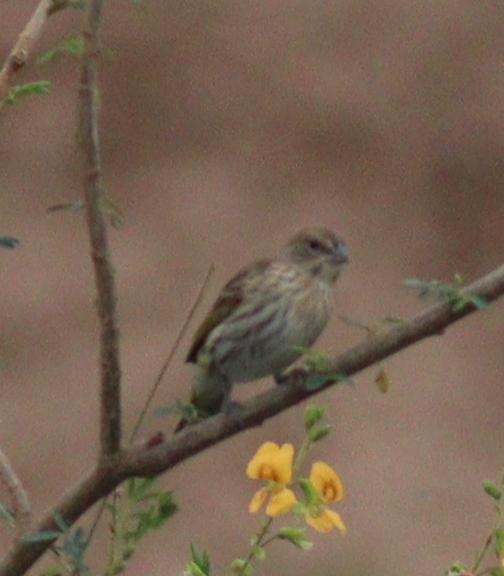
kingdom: Animalia
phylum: Chordata
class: Aves
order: Passeriformes
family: Thraupidae
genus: Sicalis
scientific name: Sicalis flaveola
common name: Saffron finch
